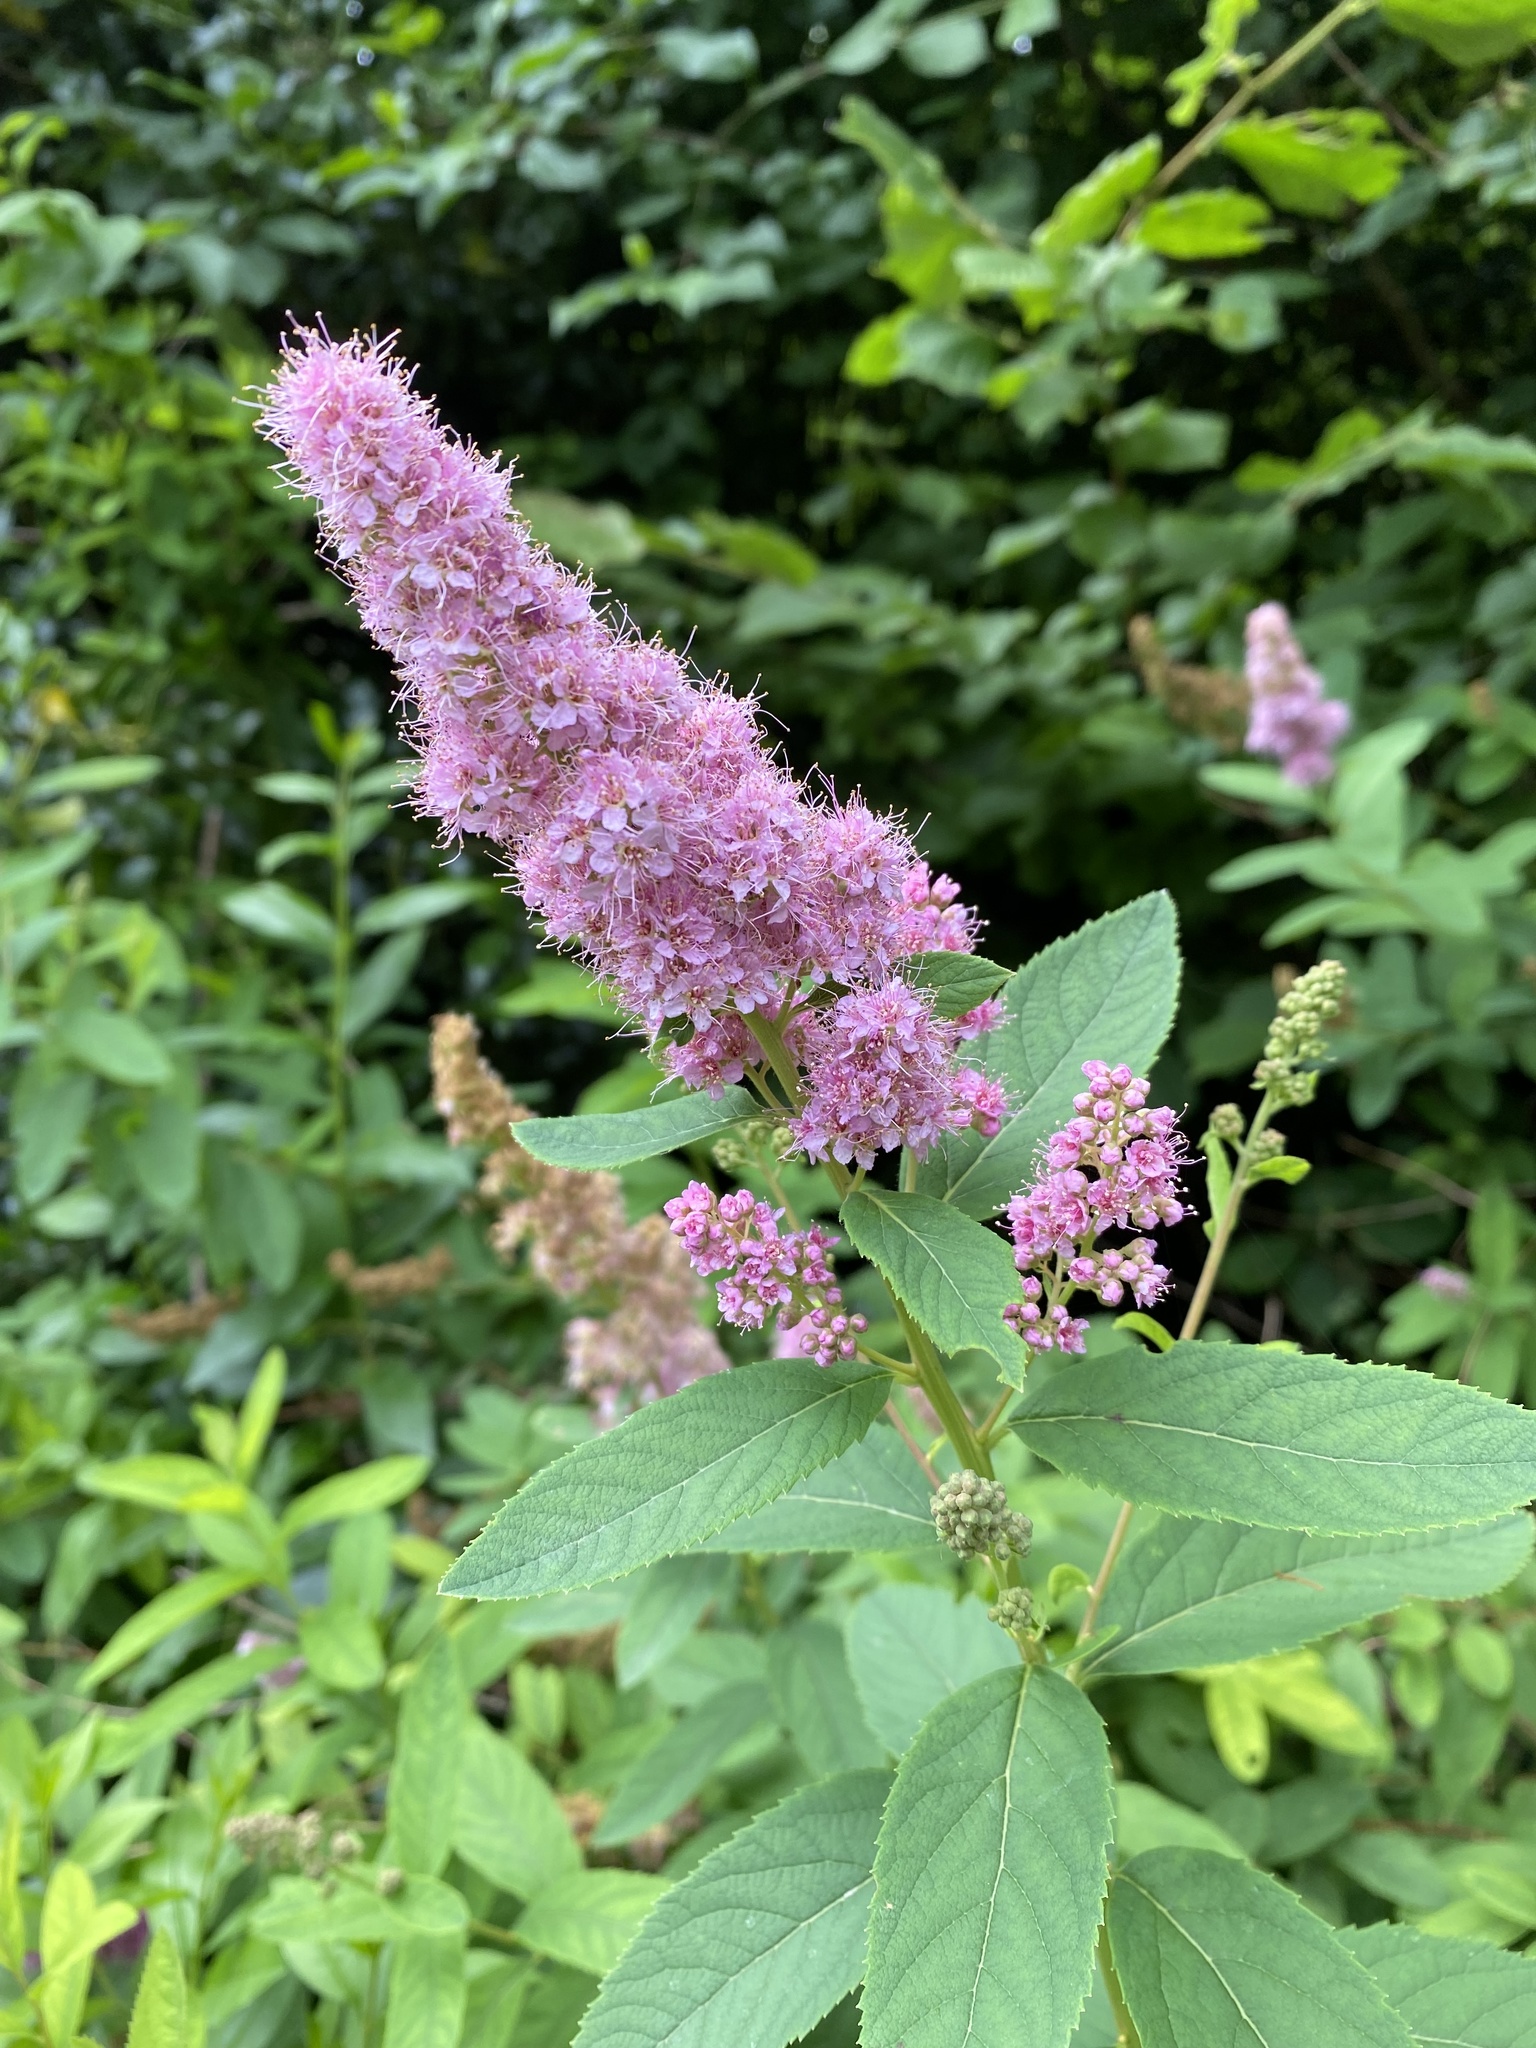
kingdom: Plantae
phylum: Tracheophyta
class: Magnoliopsida
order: Rosales
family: Rosaceae
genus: Spiraea
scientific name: Spiraea douglasii
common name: Steeplebush
